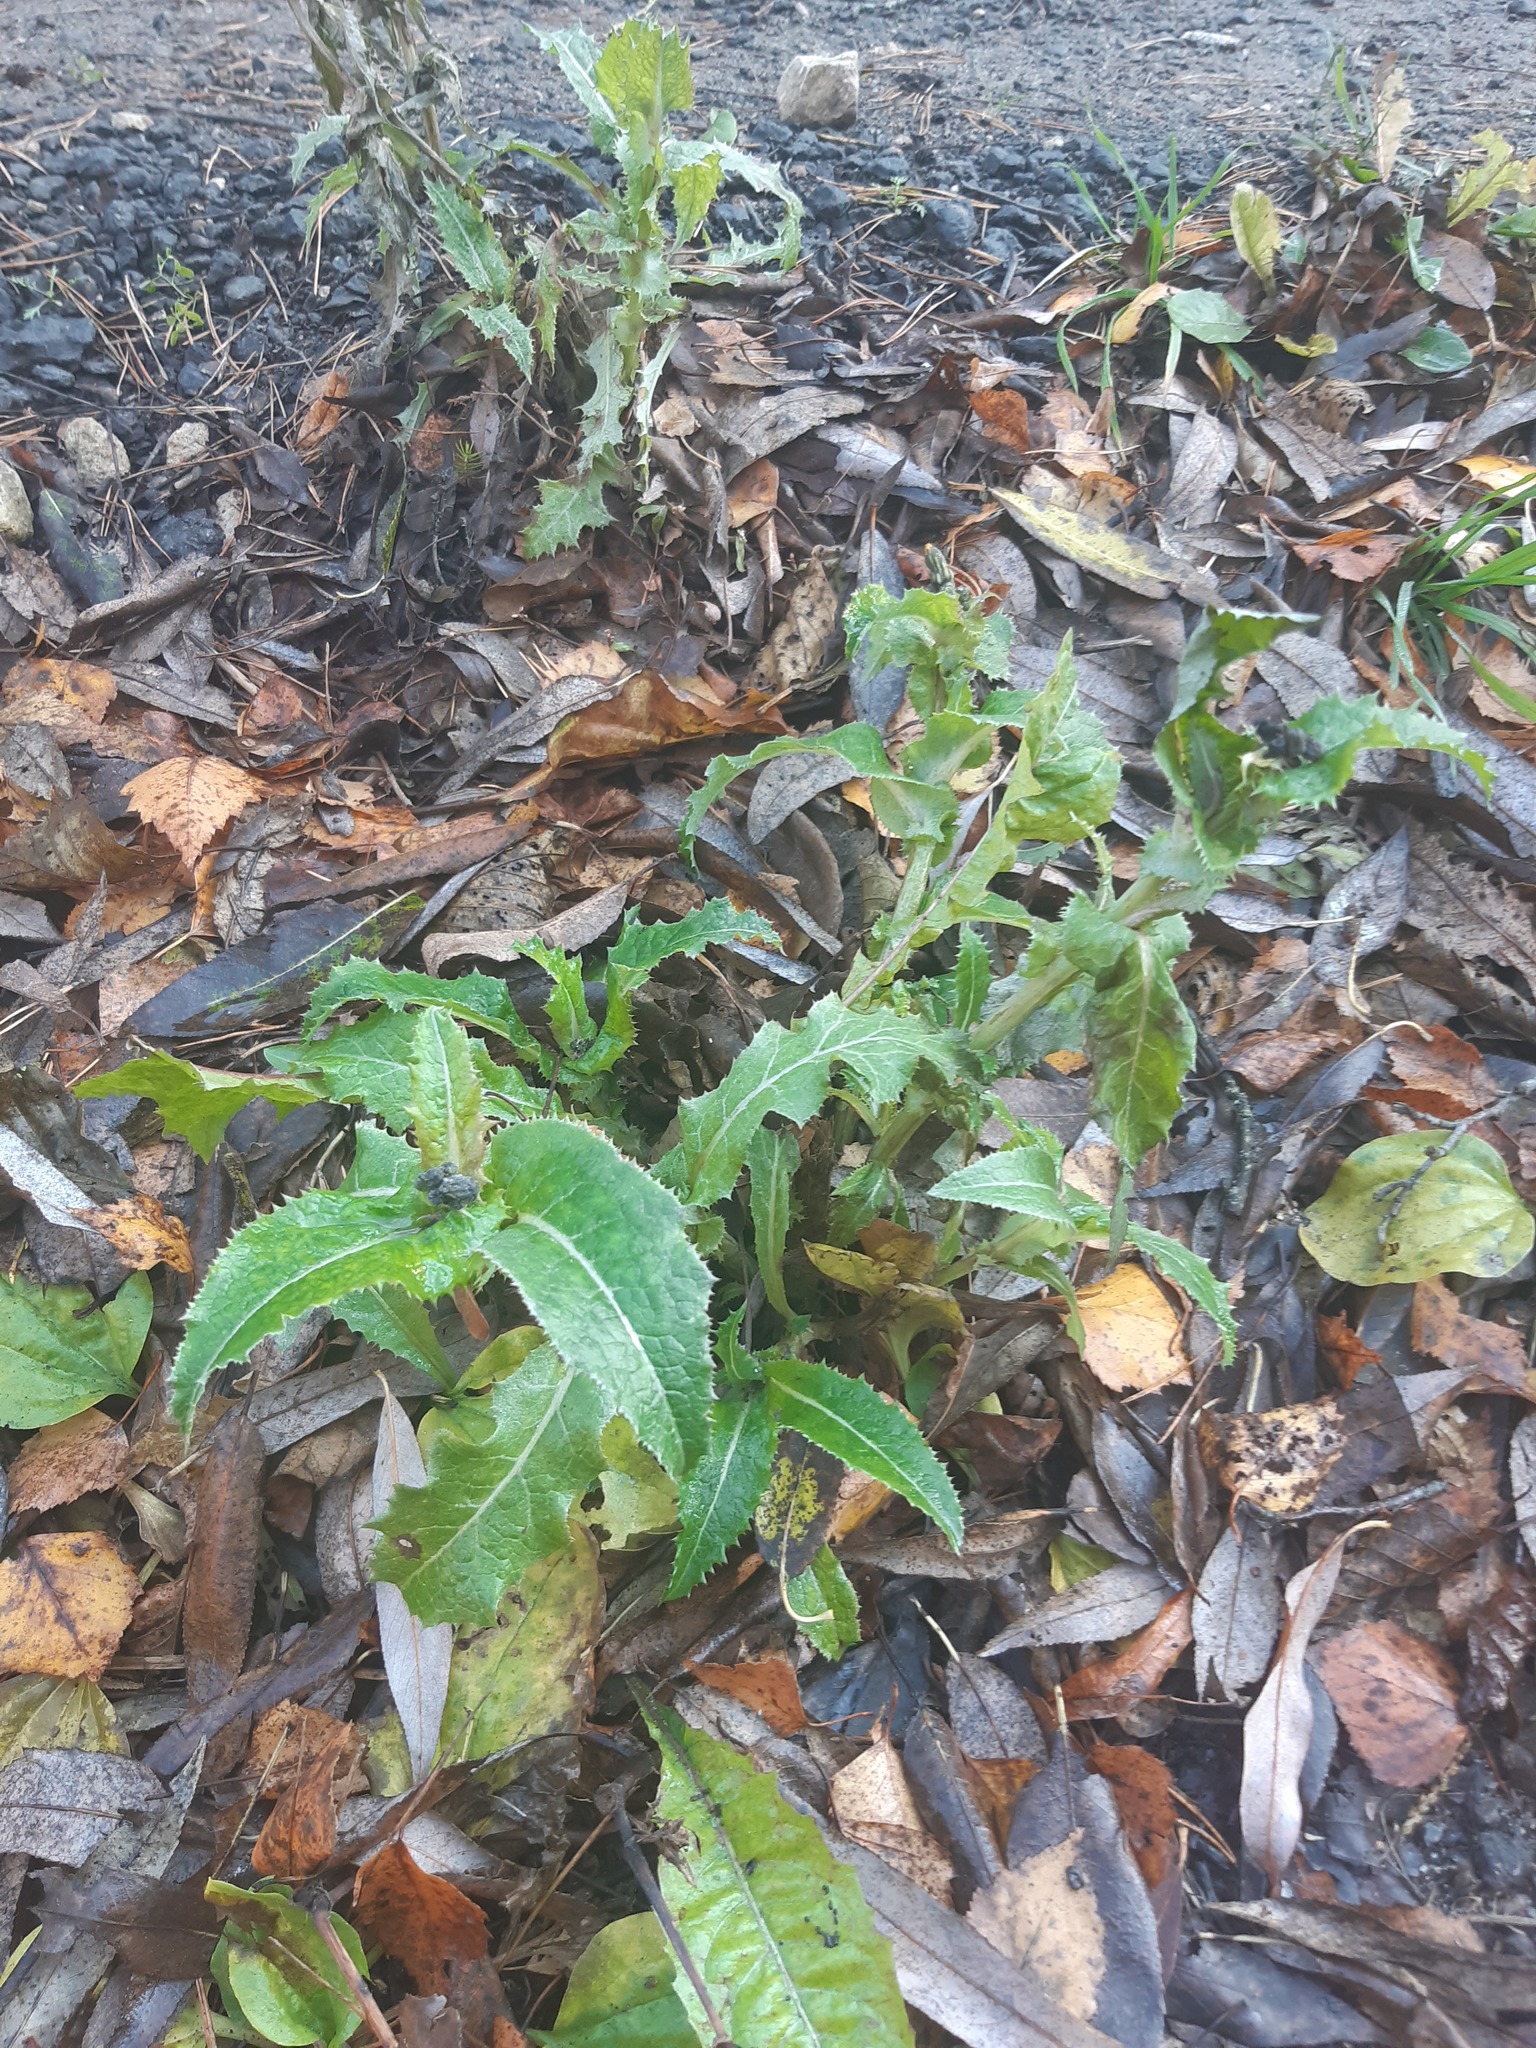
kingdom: Plantae
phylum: Tracheophyta
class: Magnoliopsida
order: Asterales
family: Asteraceae
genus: Sonchus
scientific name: Sonchus asper
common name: Prickly sow-thistle
